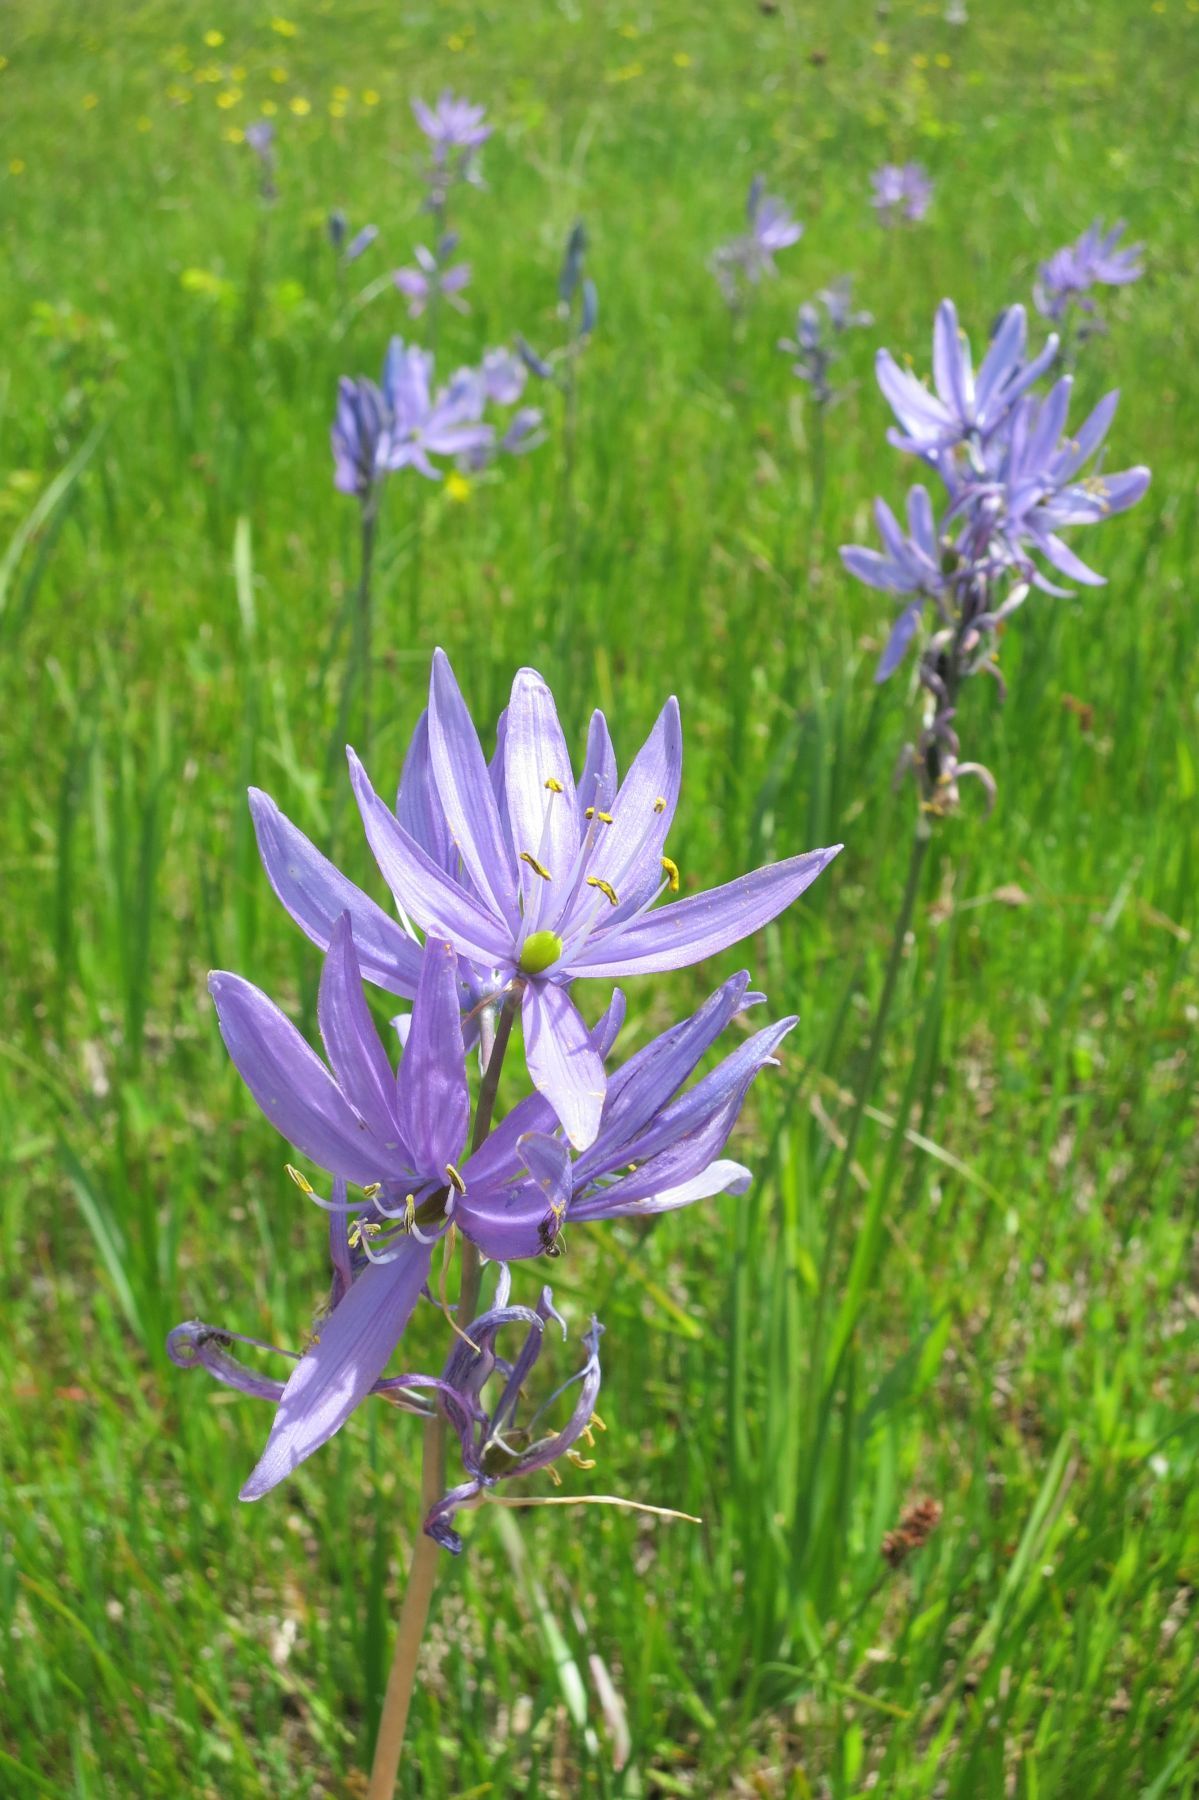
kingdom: Plantae
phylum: Tracheophyta
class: Liliopsida
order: Asparagales
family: Asparagaceae
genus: Camassia
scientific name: Camassia quamash
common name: Common camas
